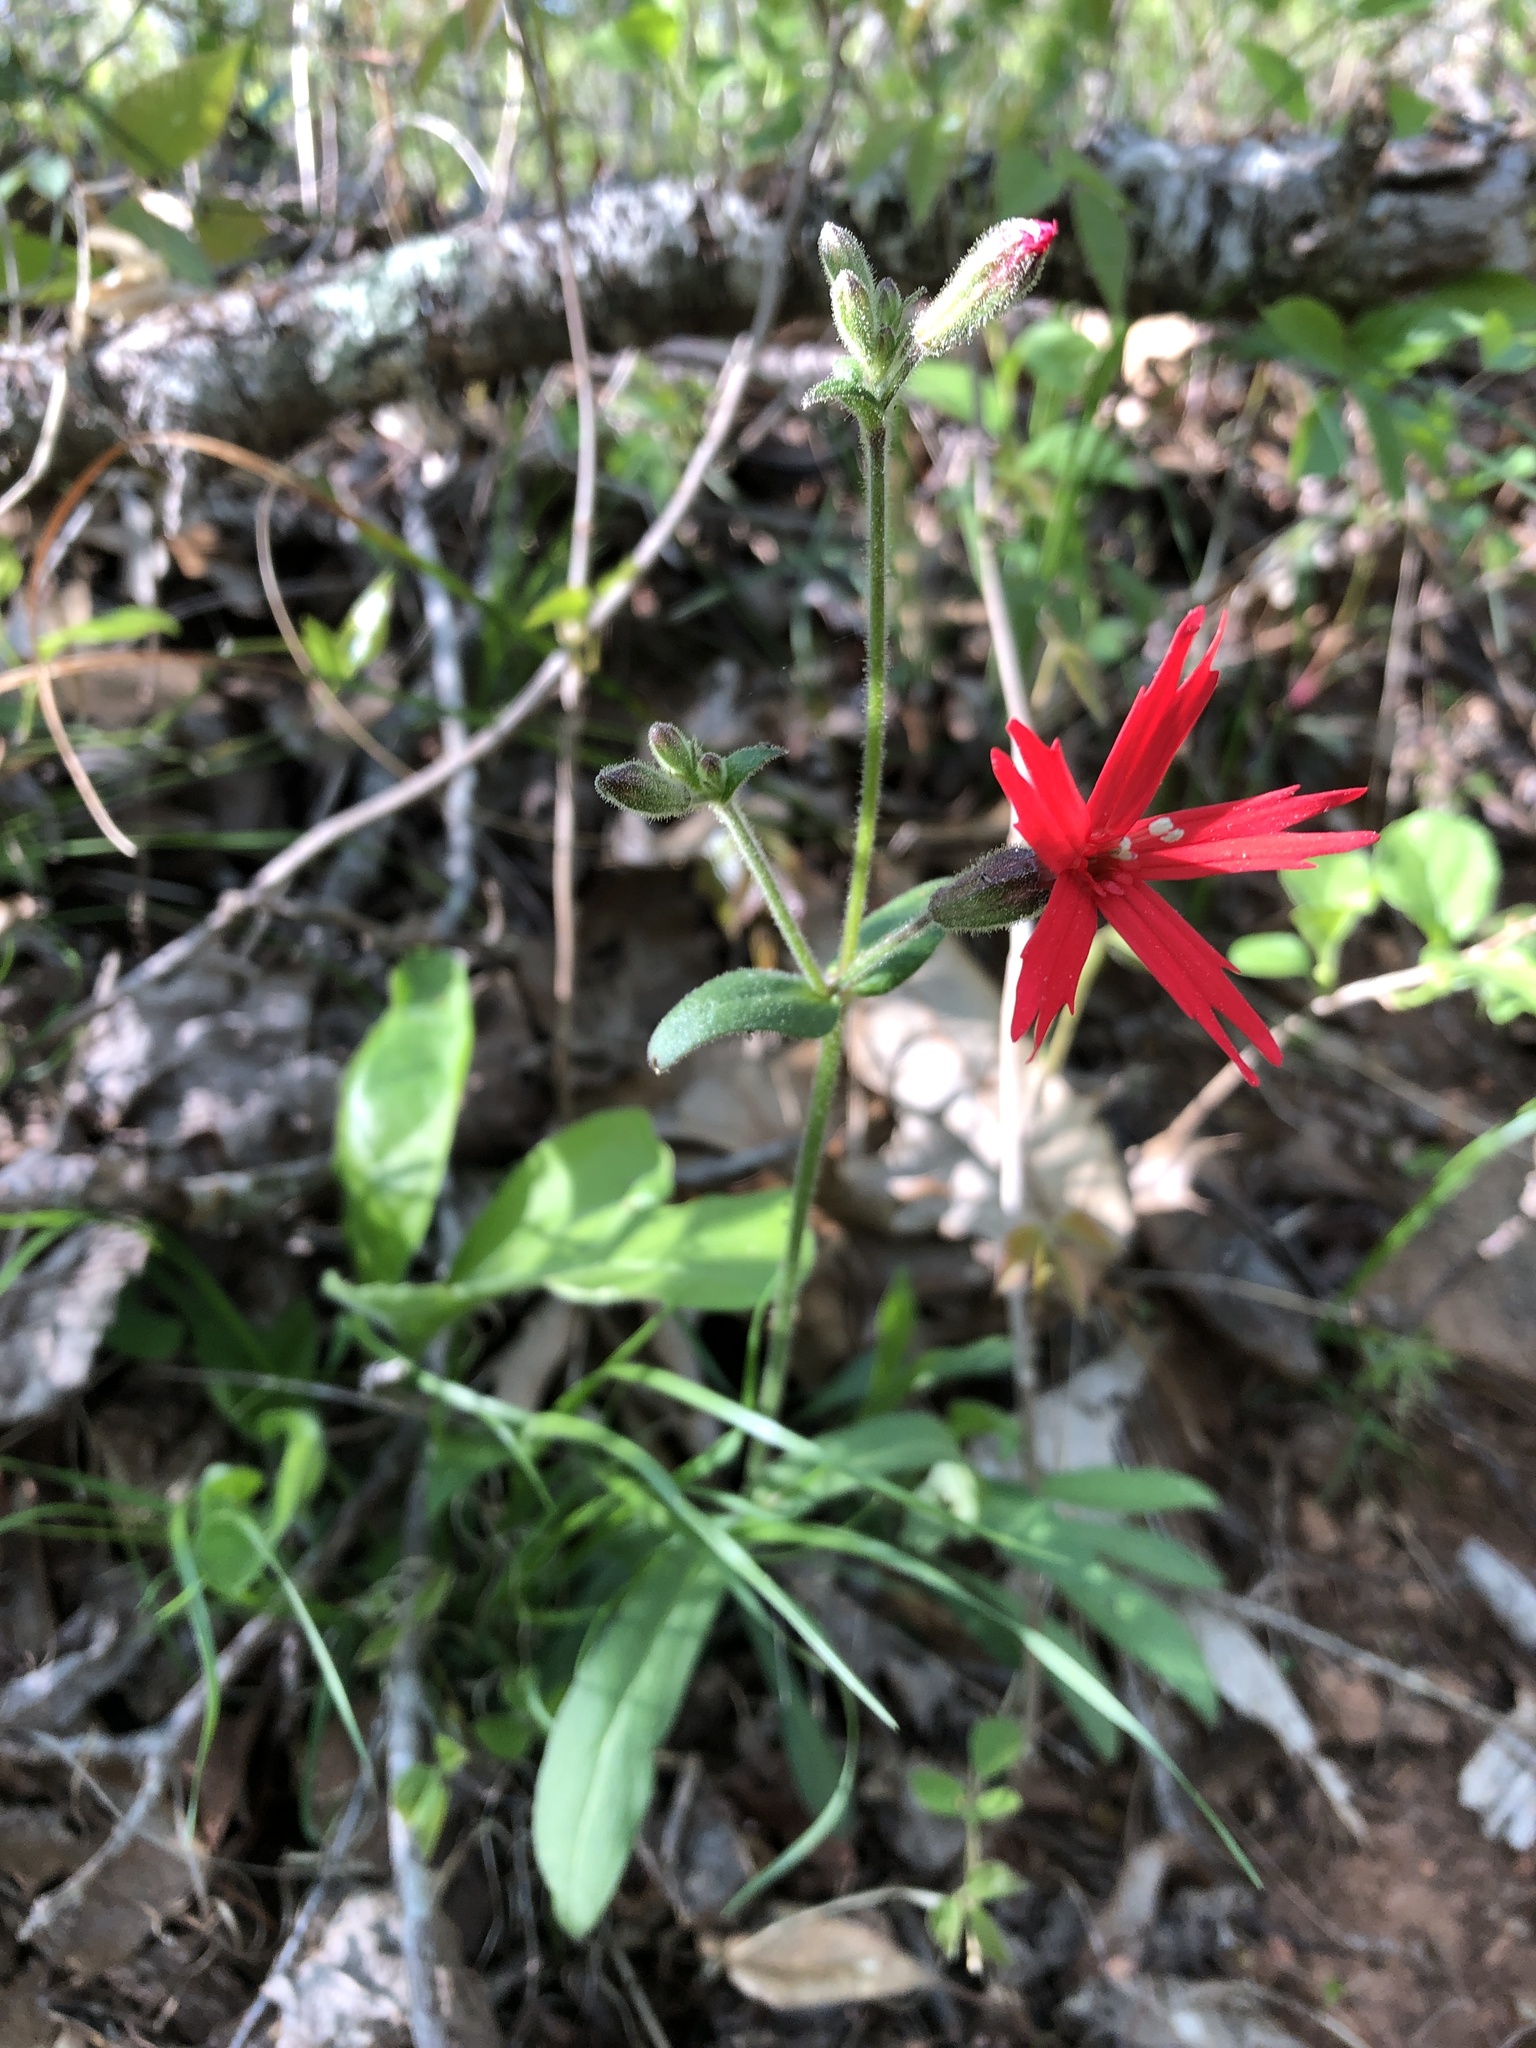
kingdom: Plantae
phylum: Tracheophyta
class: Magnoliopsida
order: Caryophyllales
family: Caryophyllaceae
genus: Silene
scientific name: Silene virginica
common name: Fire-pink
